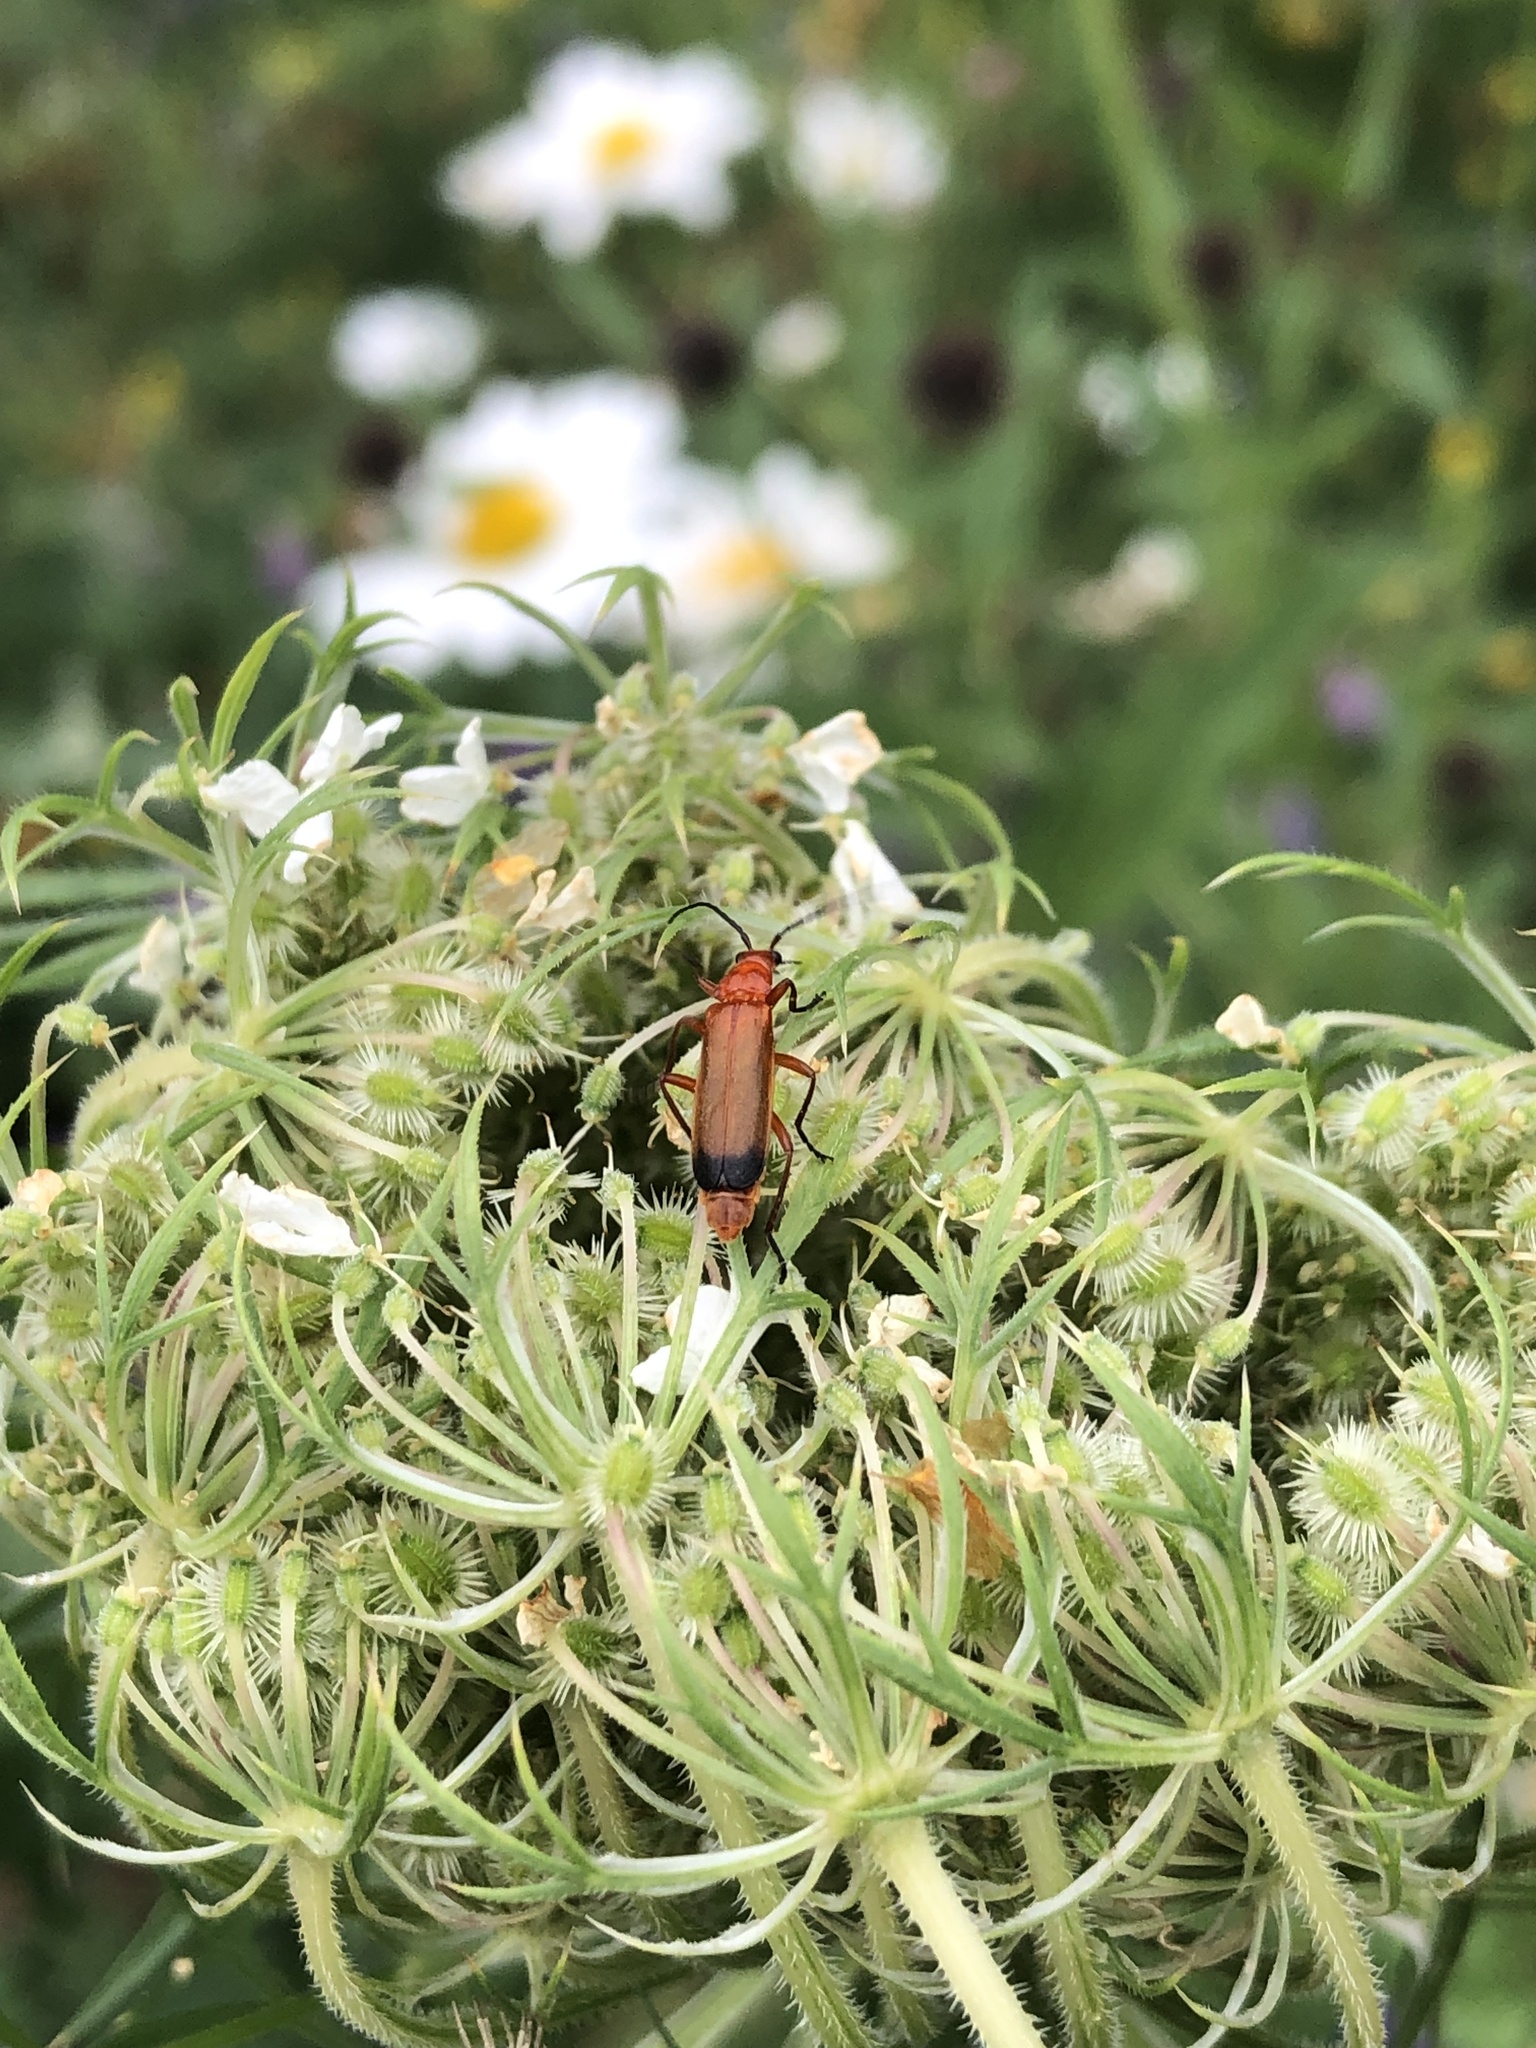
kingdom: Animalia
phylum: Arthropoda
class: Insecta
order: Coleoptera
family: Cantharidae
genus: Rhagonycha
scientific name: Rhagonycha fulva
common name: Common red soldier beetle
